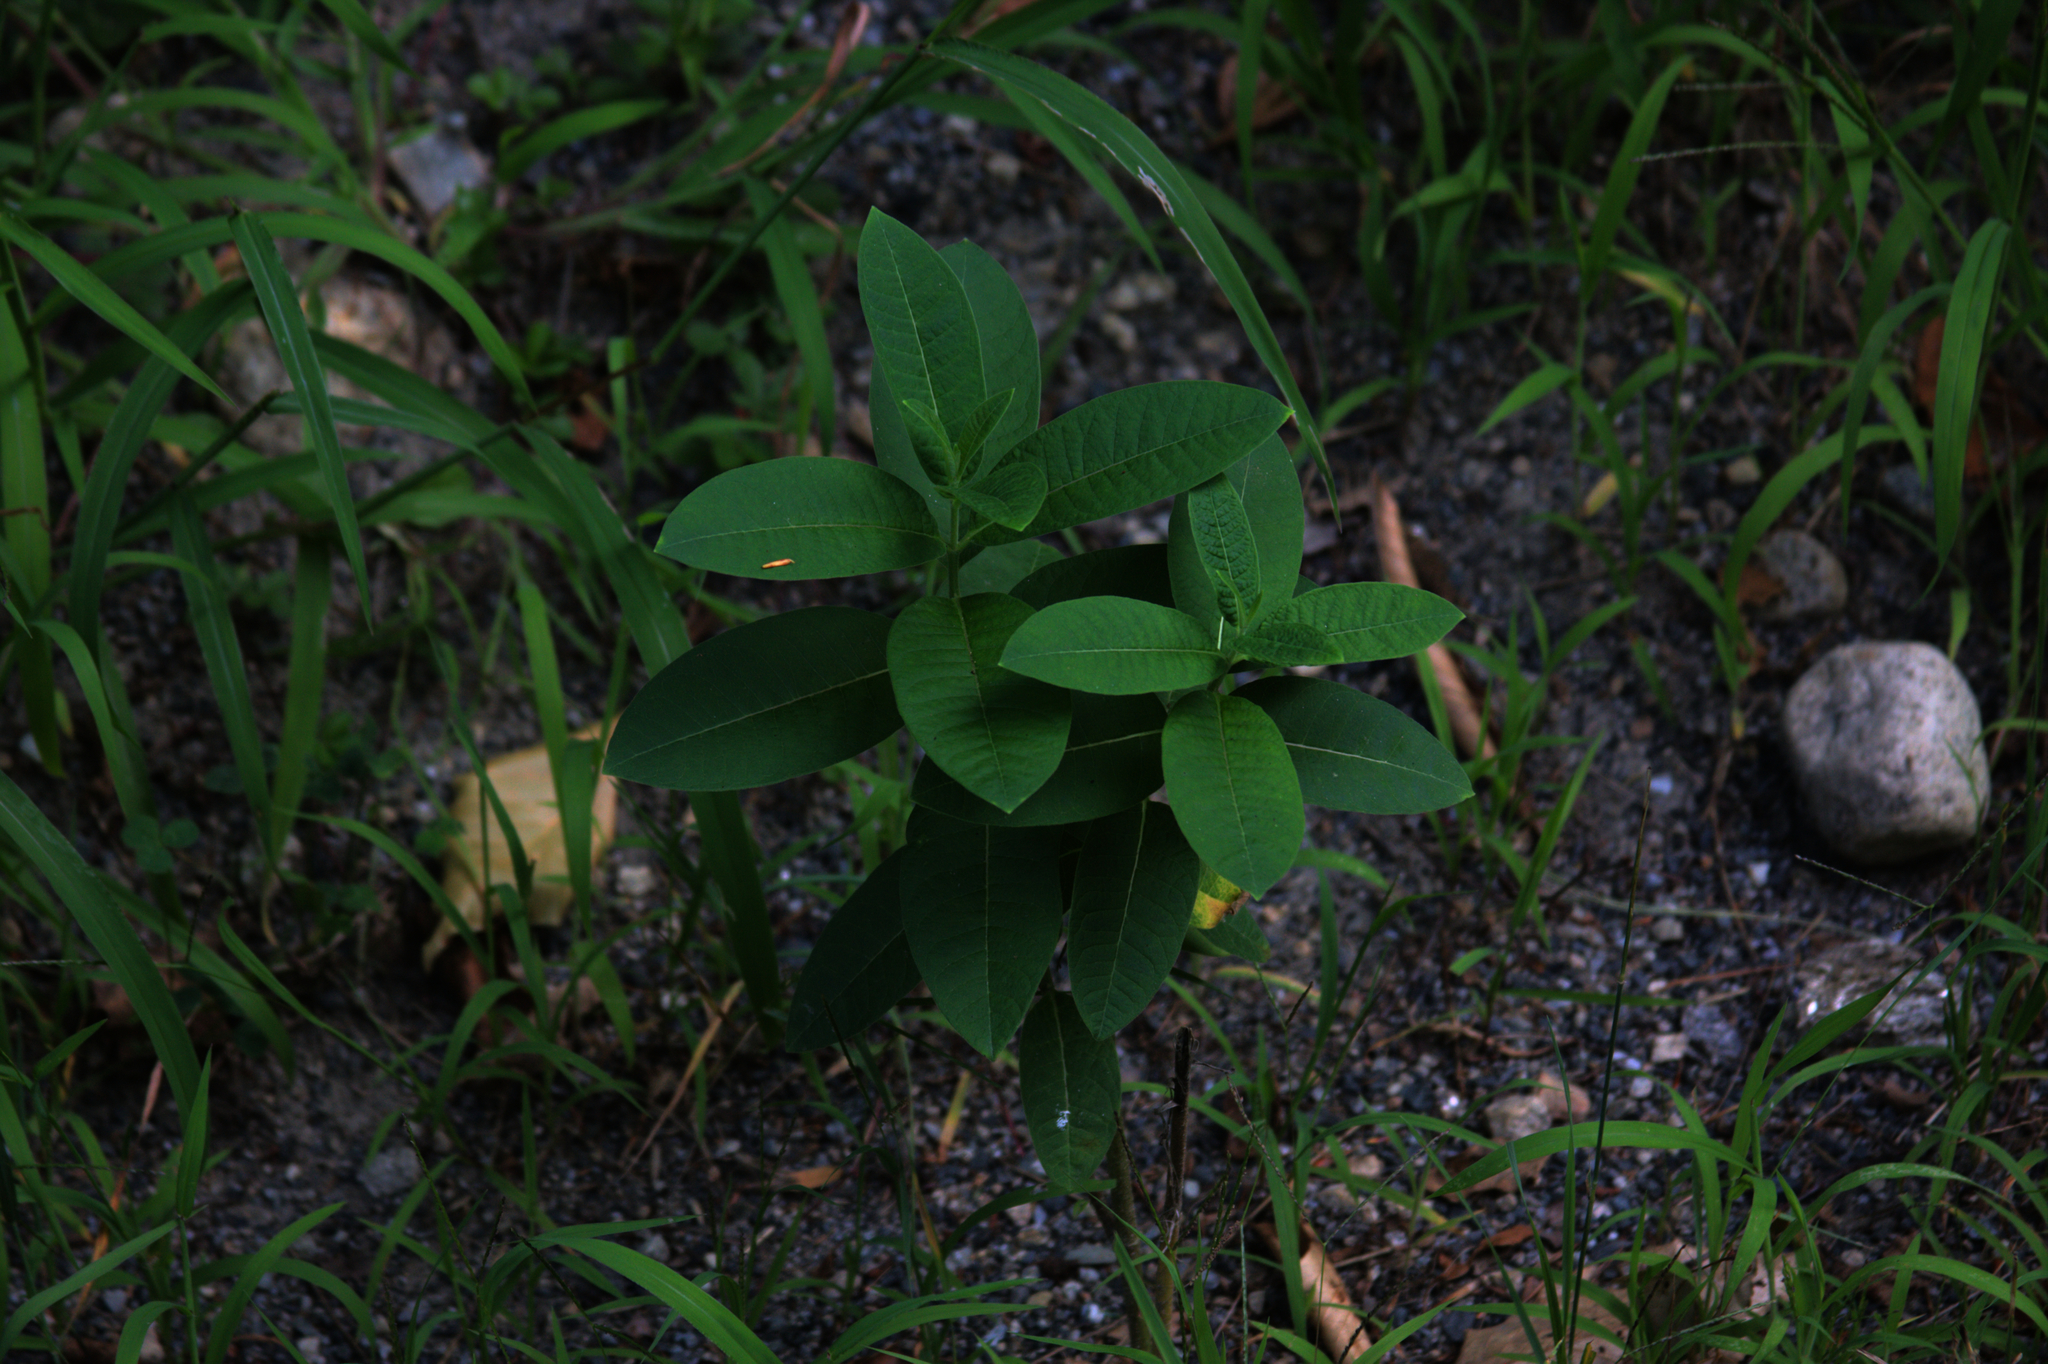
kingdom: Plantae
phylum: Tracheophyta
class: Magnoliopsida
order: Gentianales
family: Apocynaceae
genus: Asclepias
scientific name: Asclepias syriaca
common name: Common milkweed
